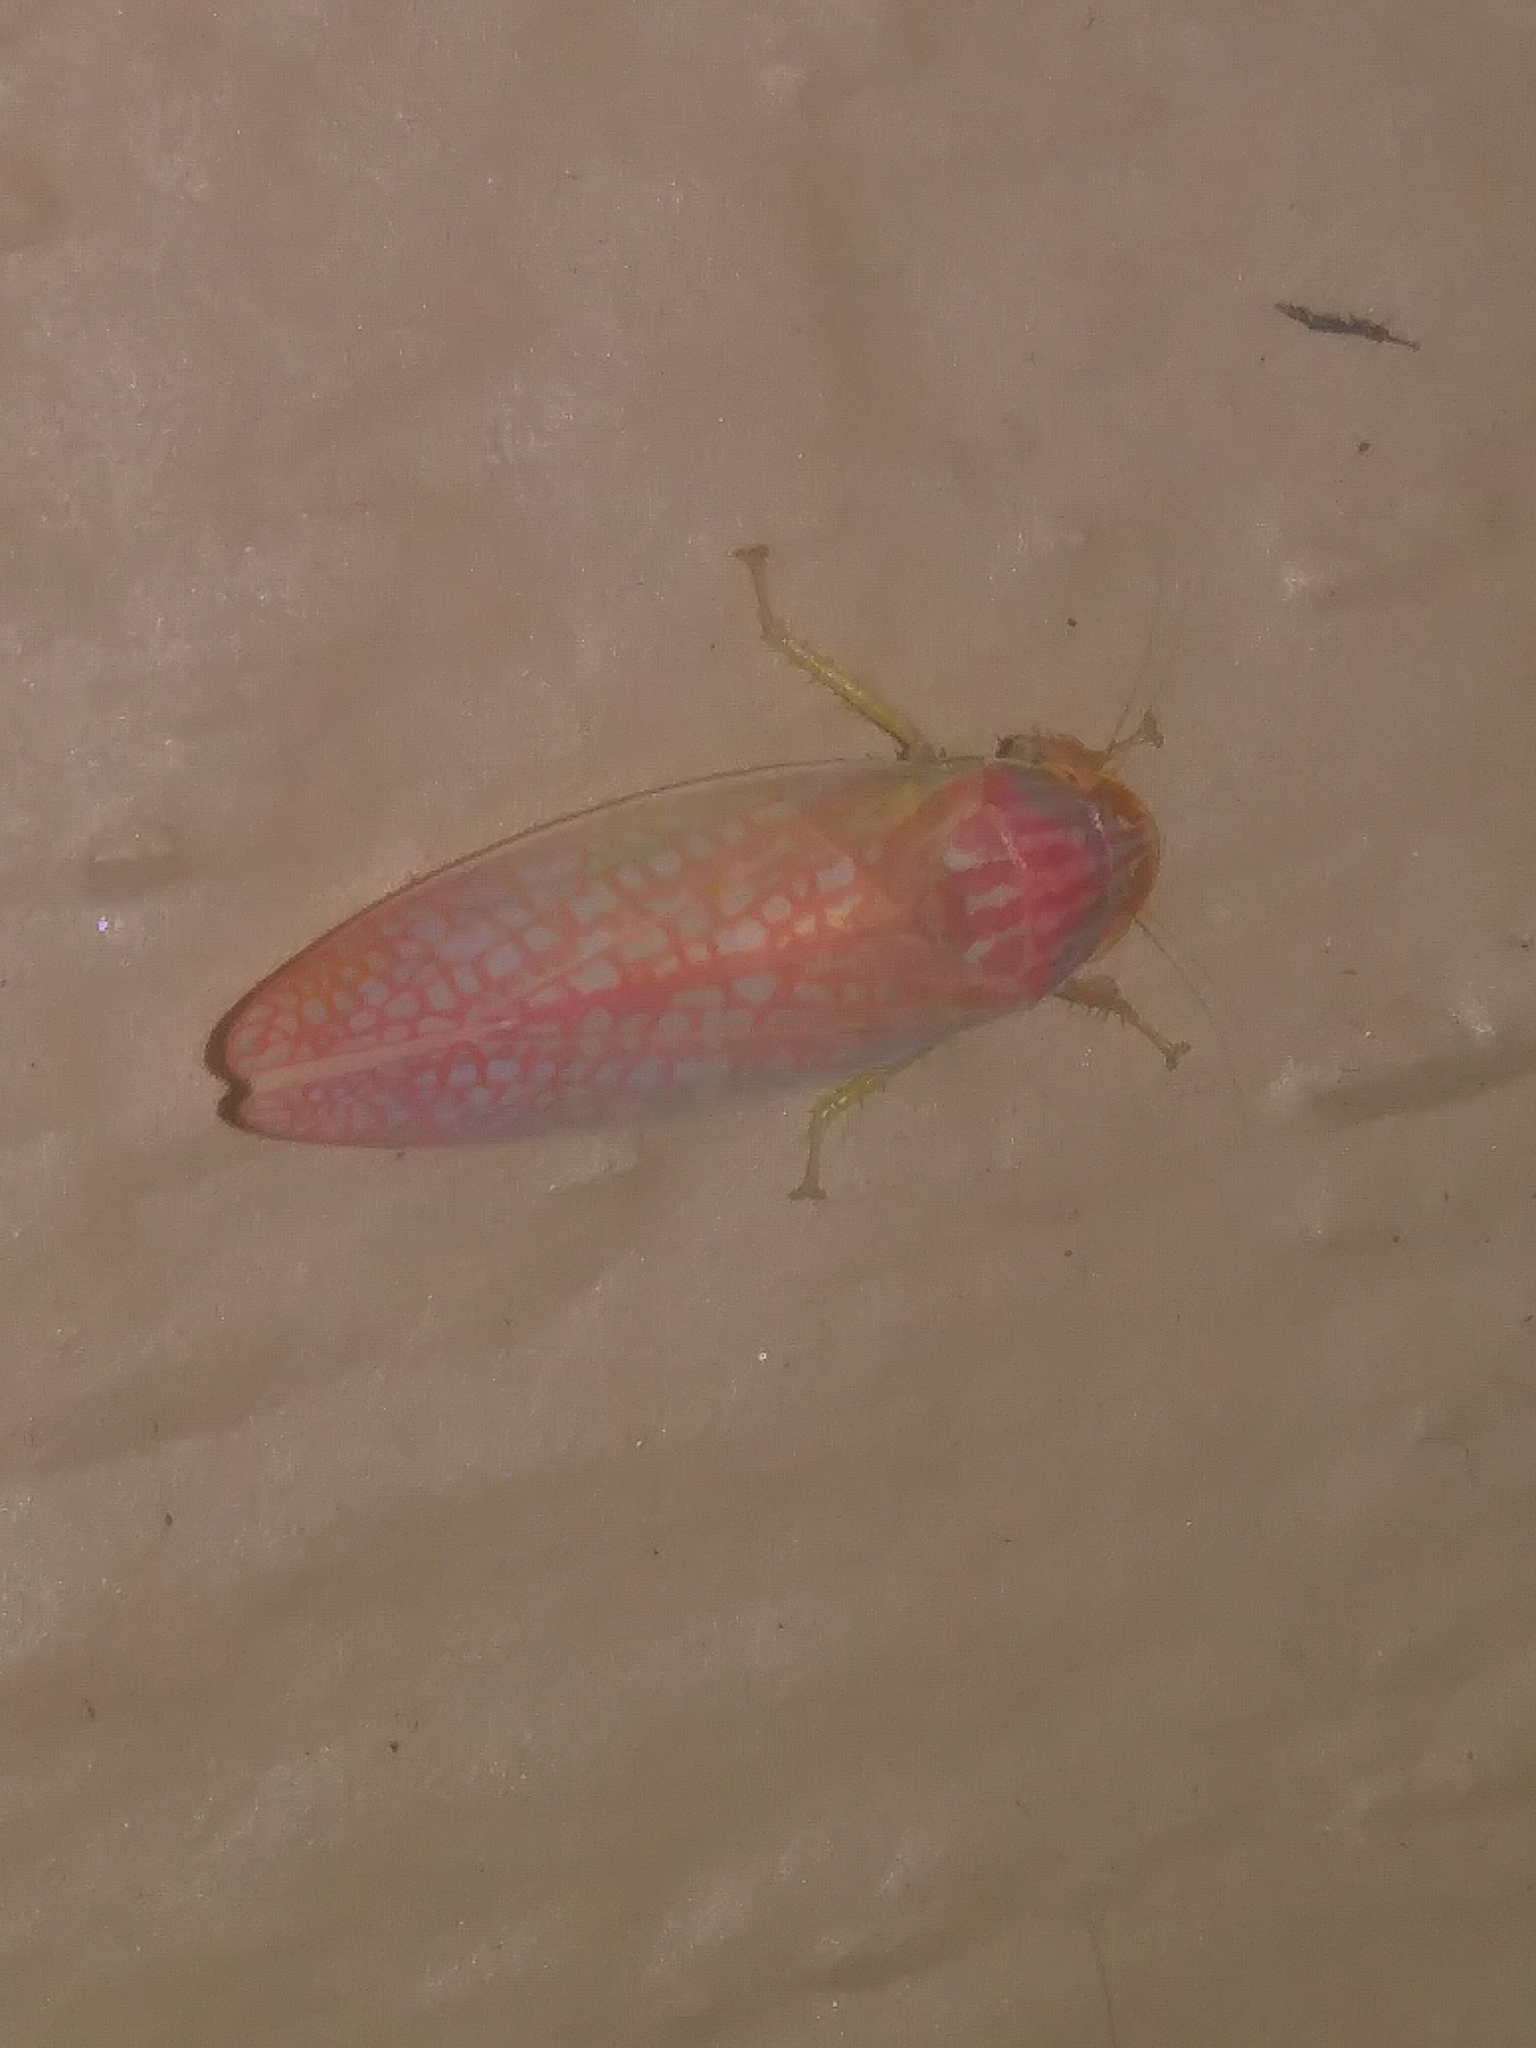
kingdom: Animalia
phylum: Arthropoda
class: Insecta
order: Hemiptera
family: Cicadellidae
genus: Gyponana
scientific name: Gyponana octolineata
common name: Eight-lined leafhopper
